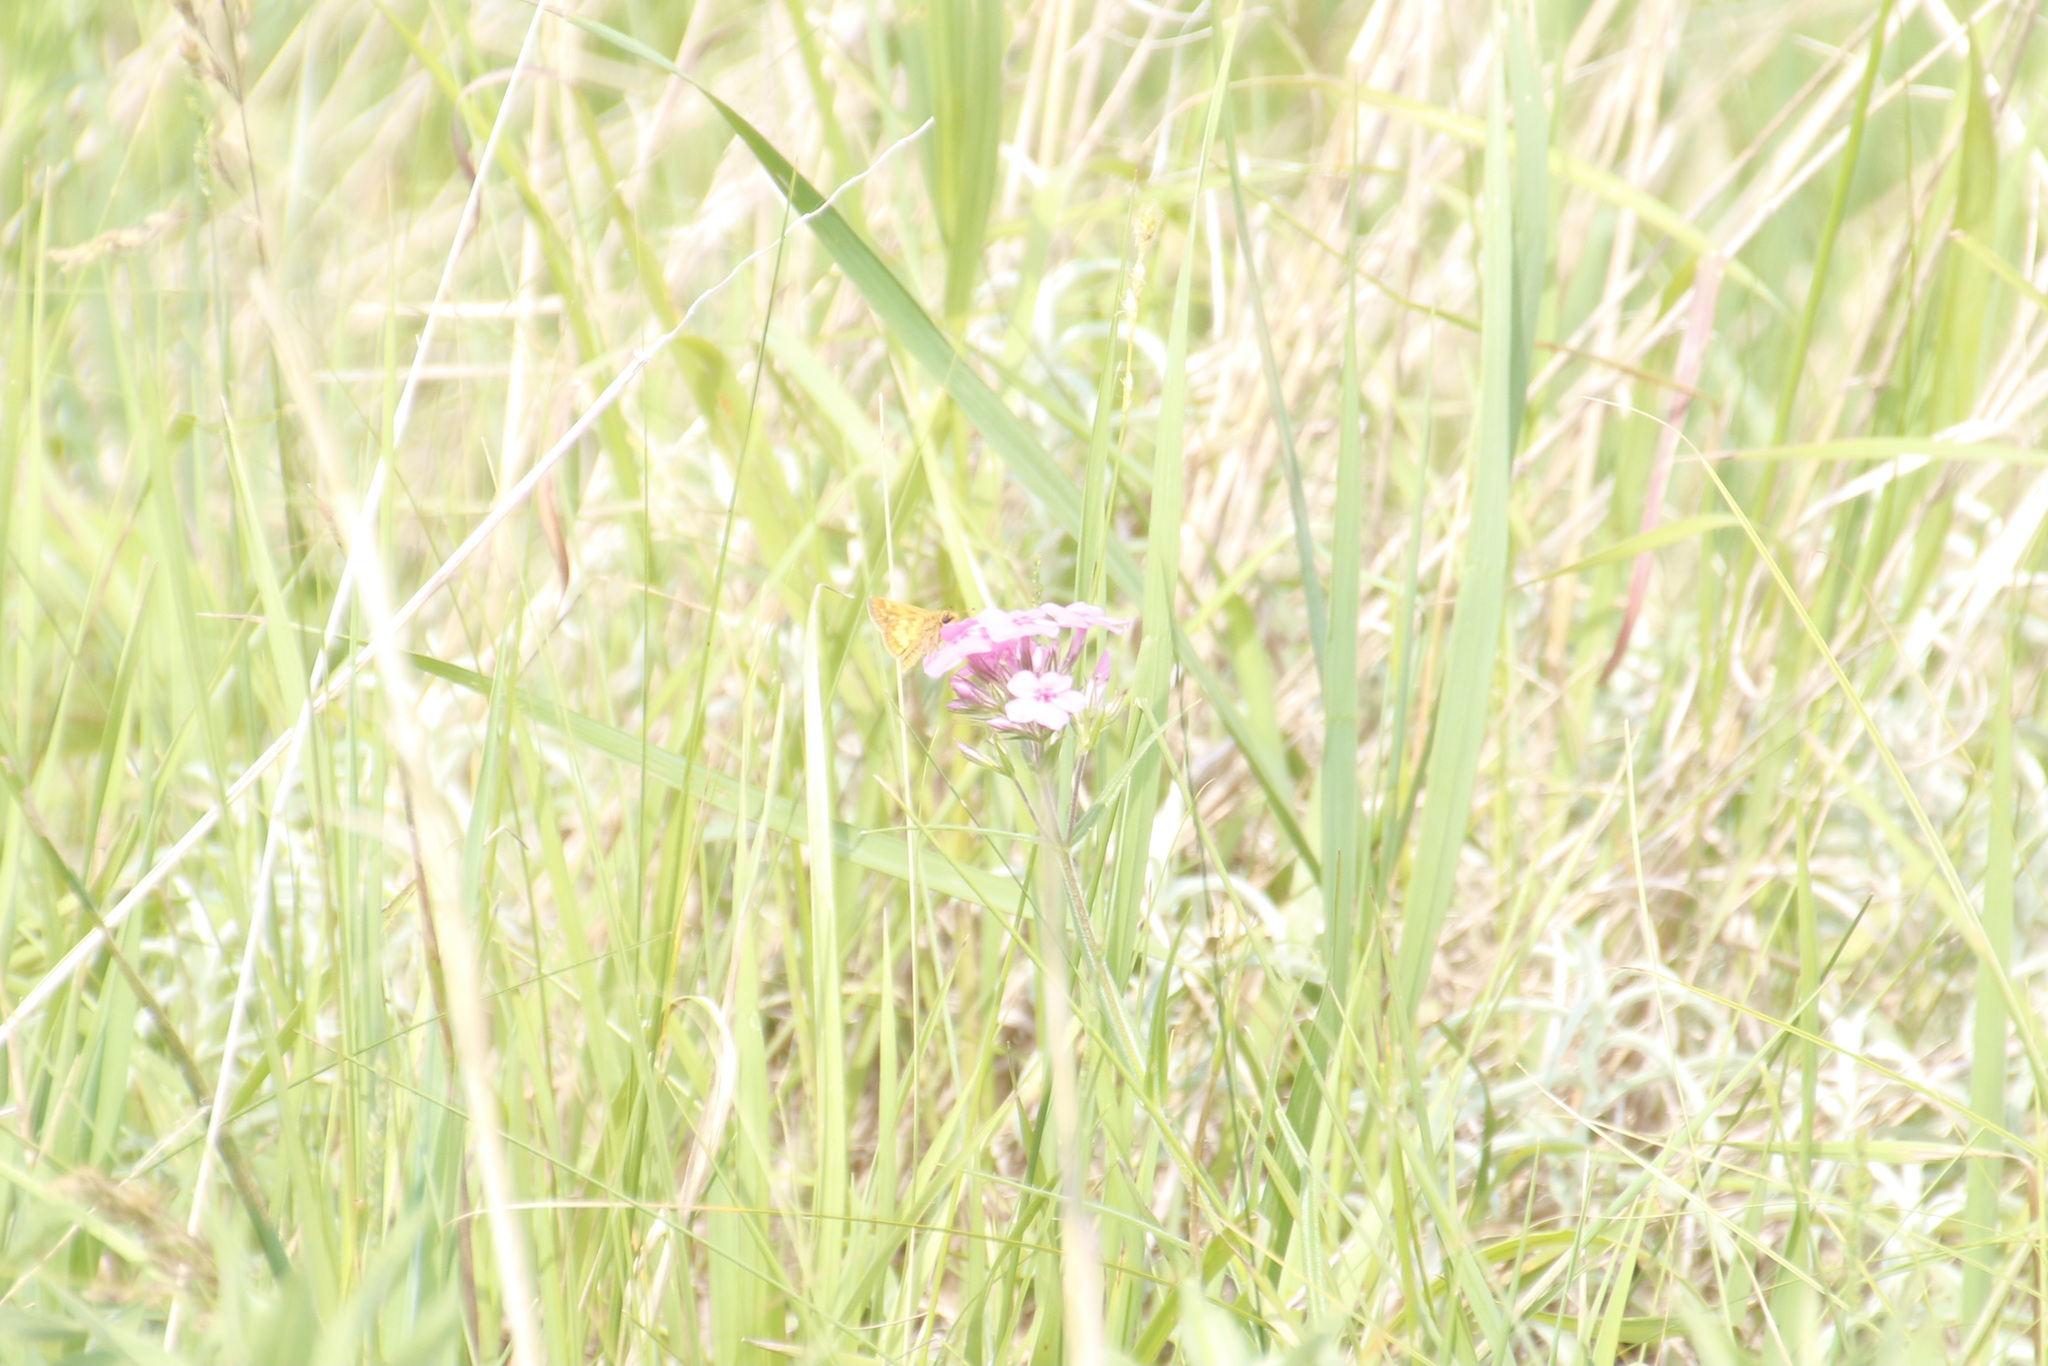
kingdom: Animalia
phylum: Arthropoda
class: Insecta
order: Lepidoptera
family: Hesperiidae
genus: Polites
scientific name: Polites coras
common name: Peck's skipper
